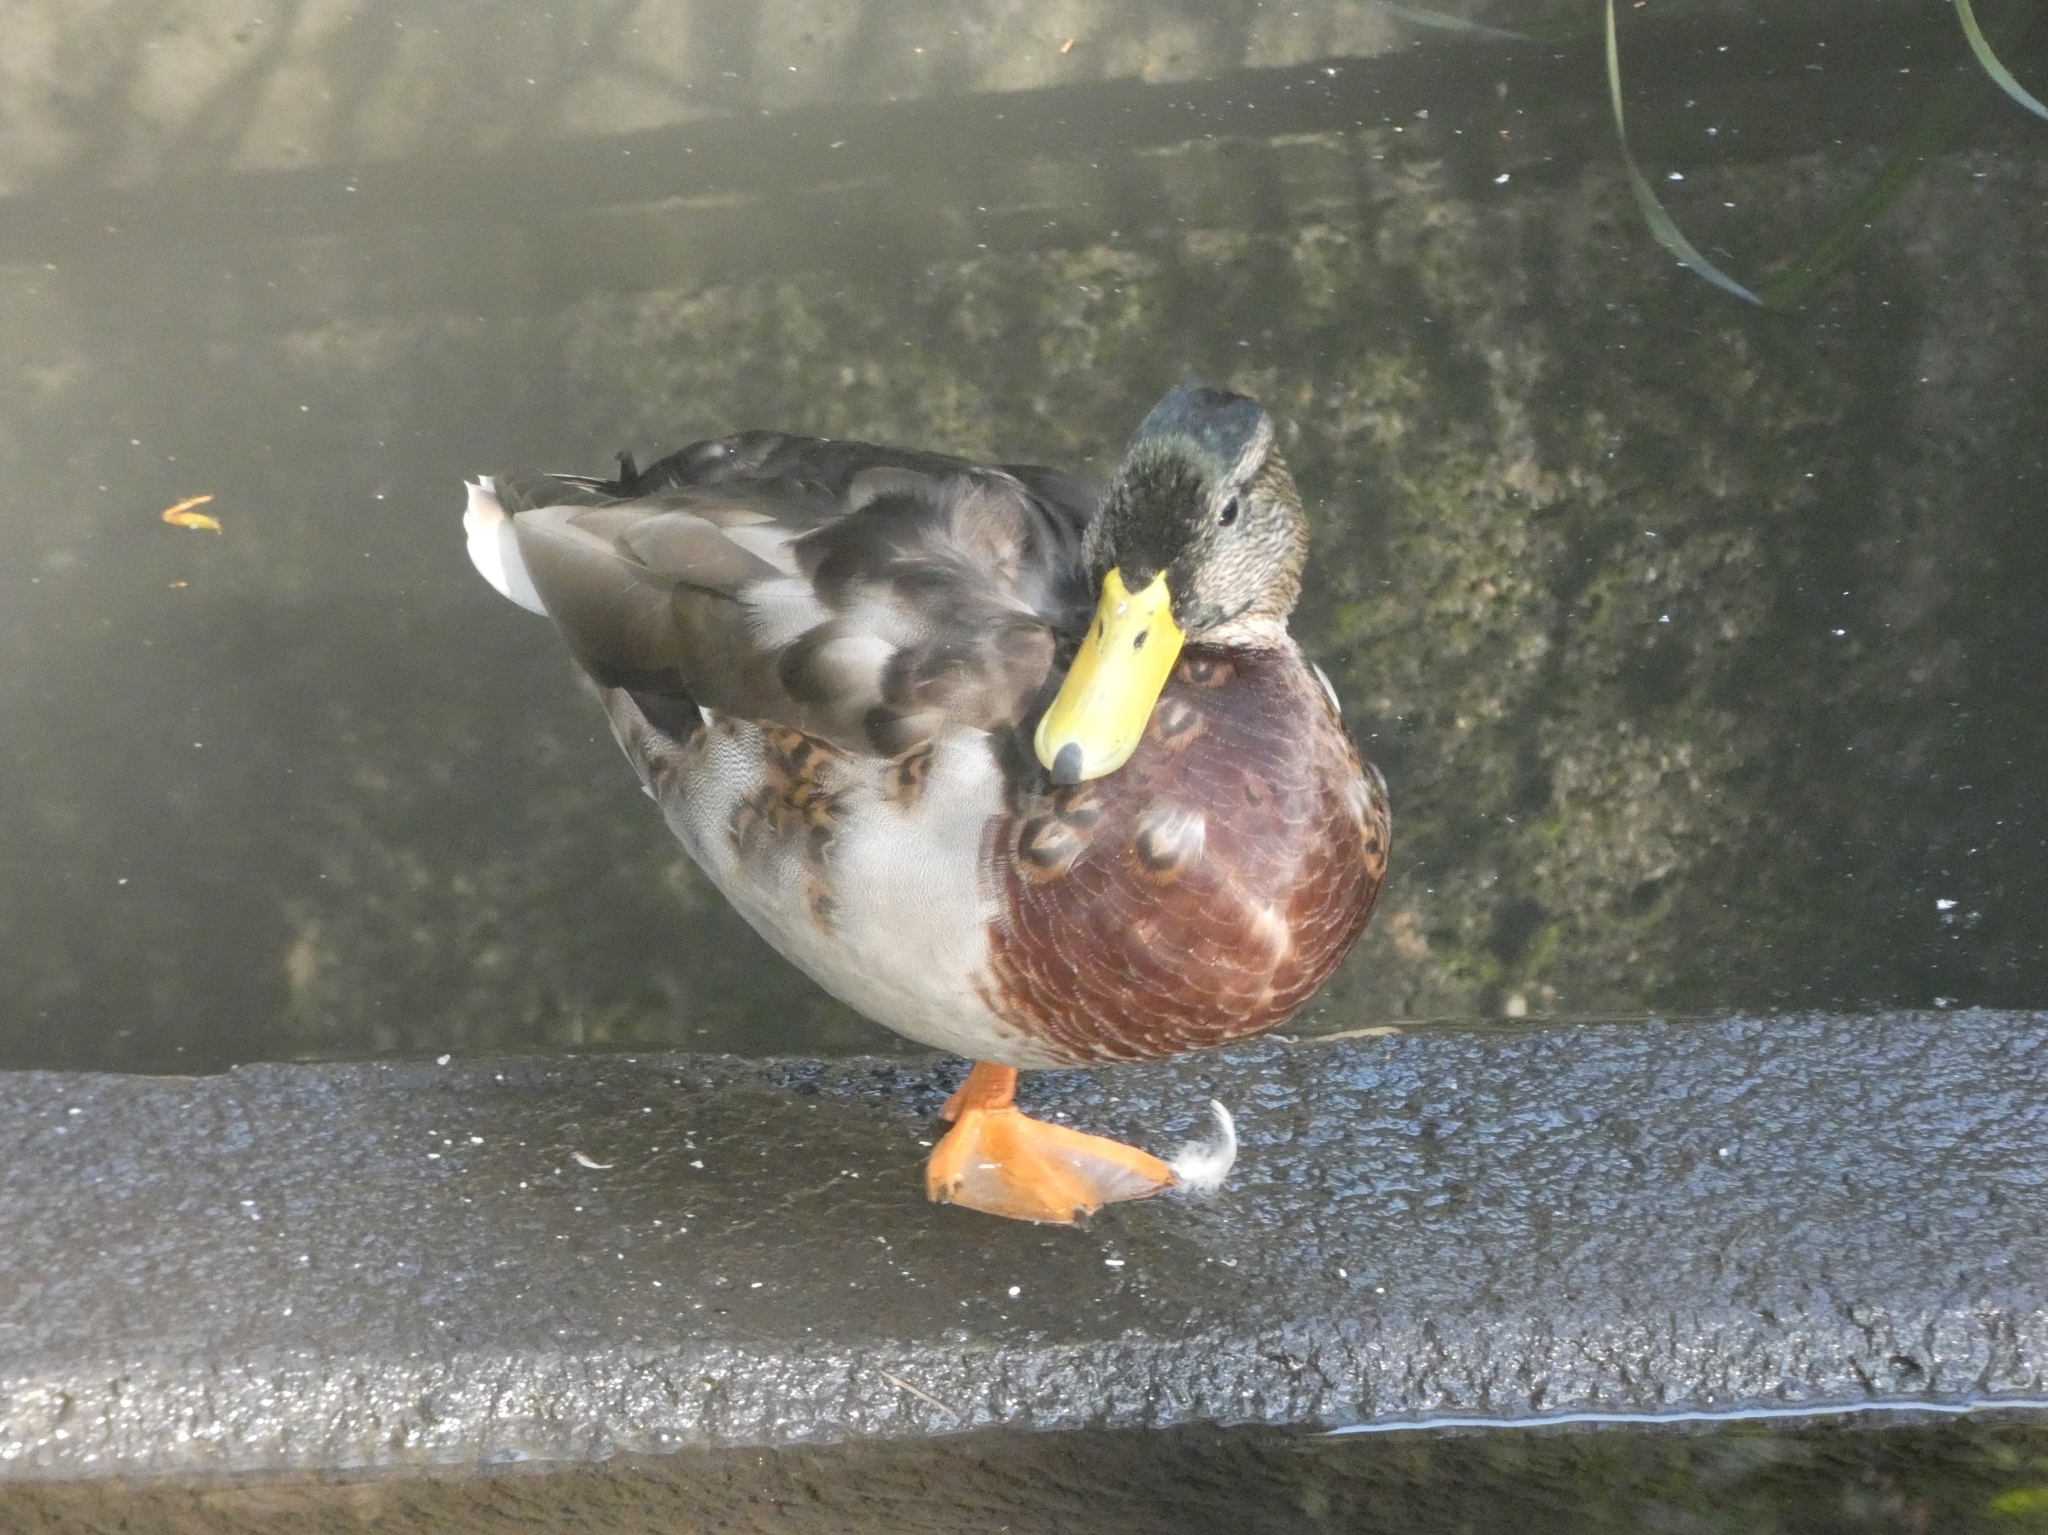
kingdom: Animalia
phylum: Chordata
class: Aves
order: Anseriformes
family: Anatidae
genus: Anas
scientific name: Anas platyrhynchos
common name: Mallard
